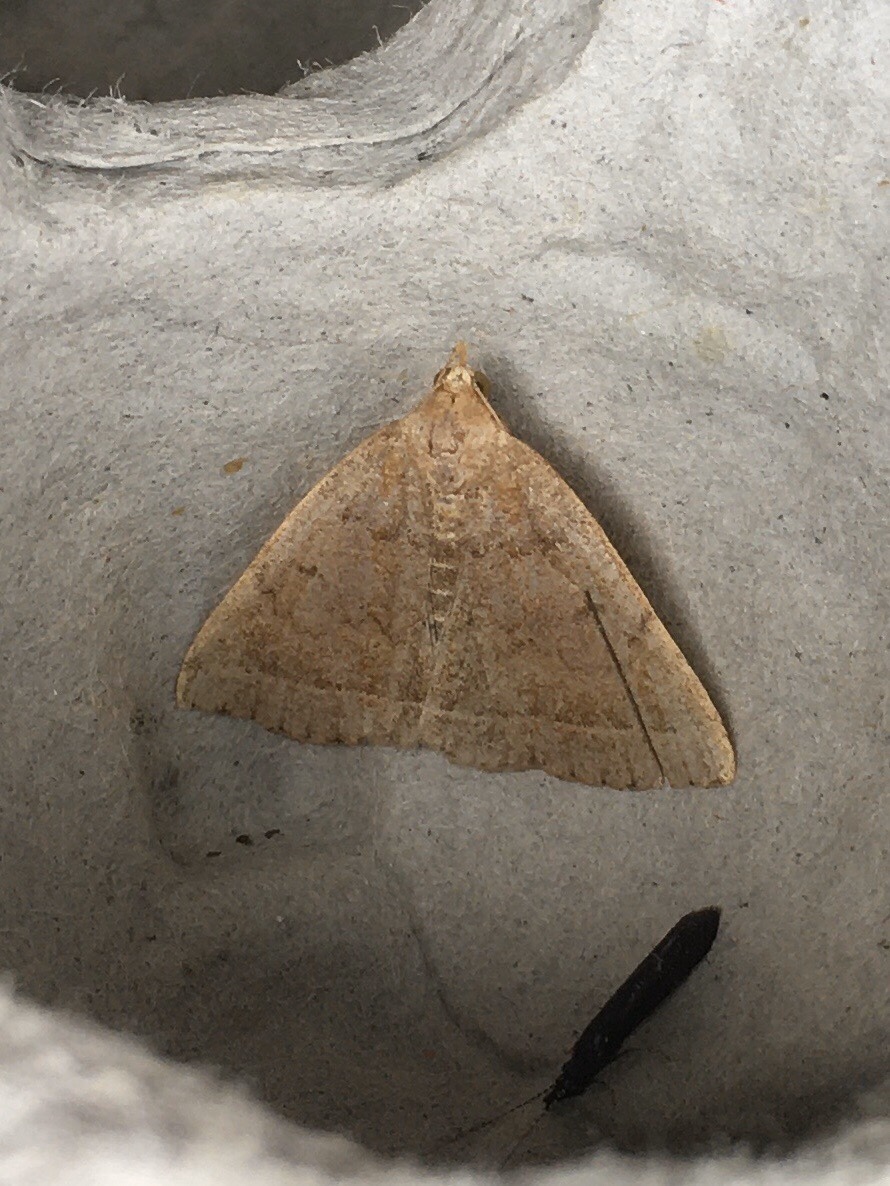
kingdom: Animalia
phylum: Arthropoda
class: Insecta
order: Lepidoptera
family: Erebidae
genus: Zanclognatha
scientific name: Zanclognatha jacchusalis
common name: Yellowish zanclognatha
